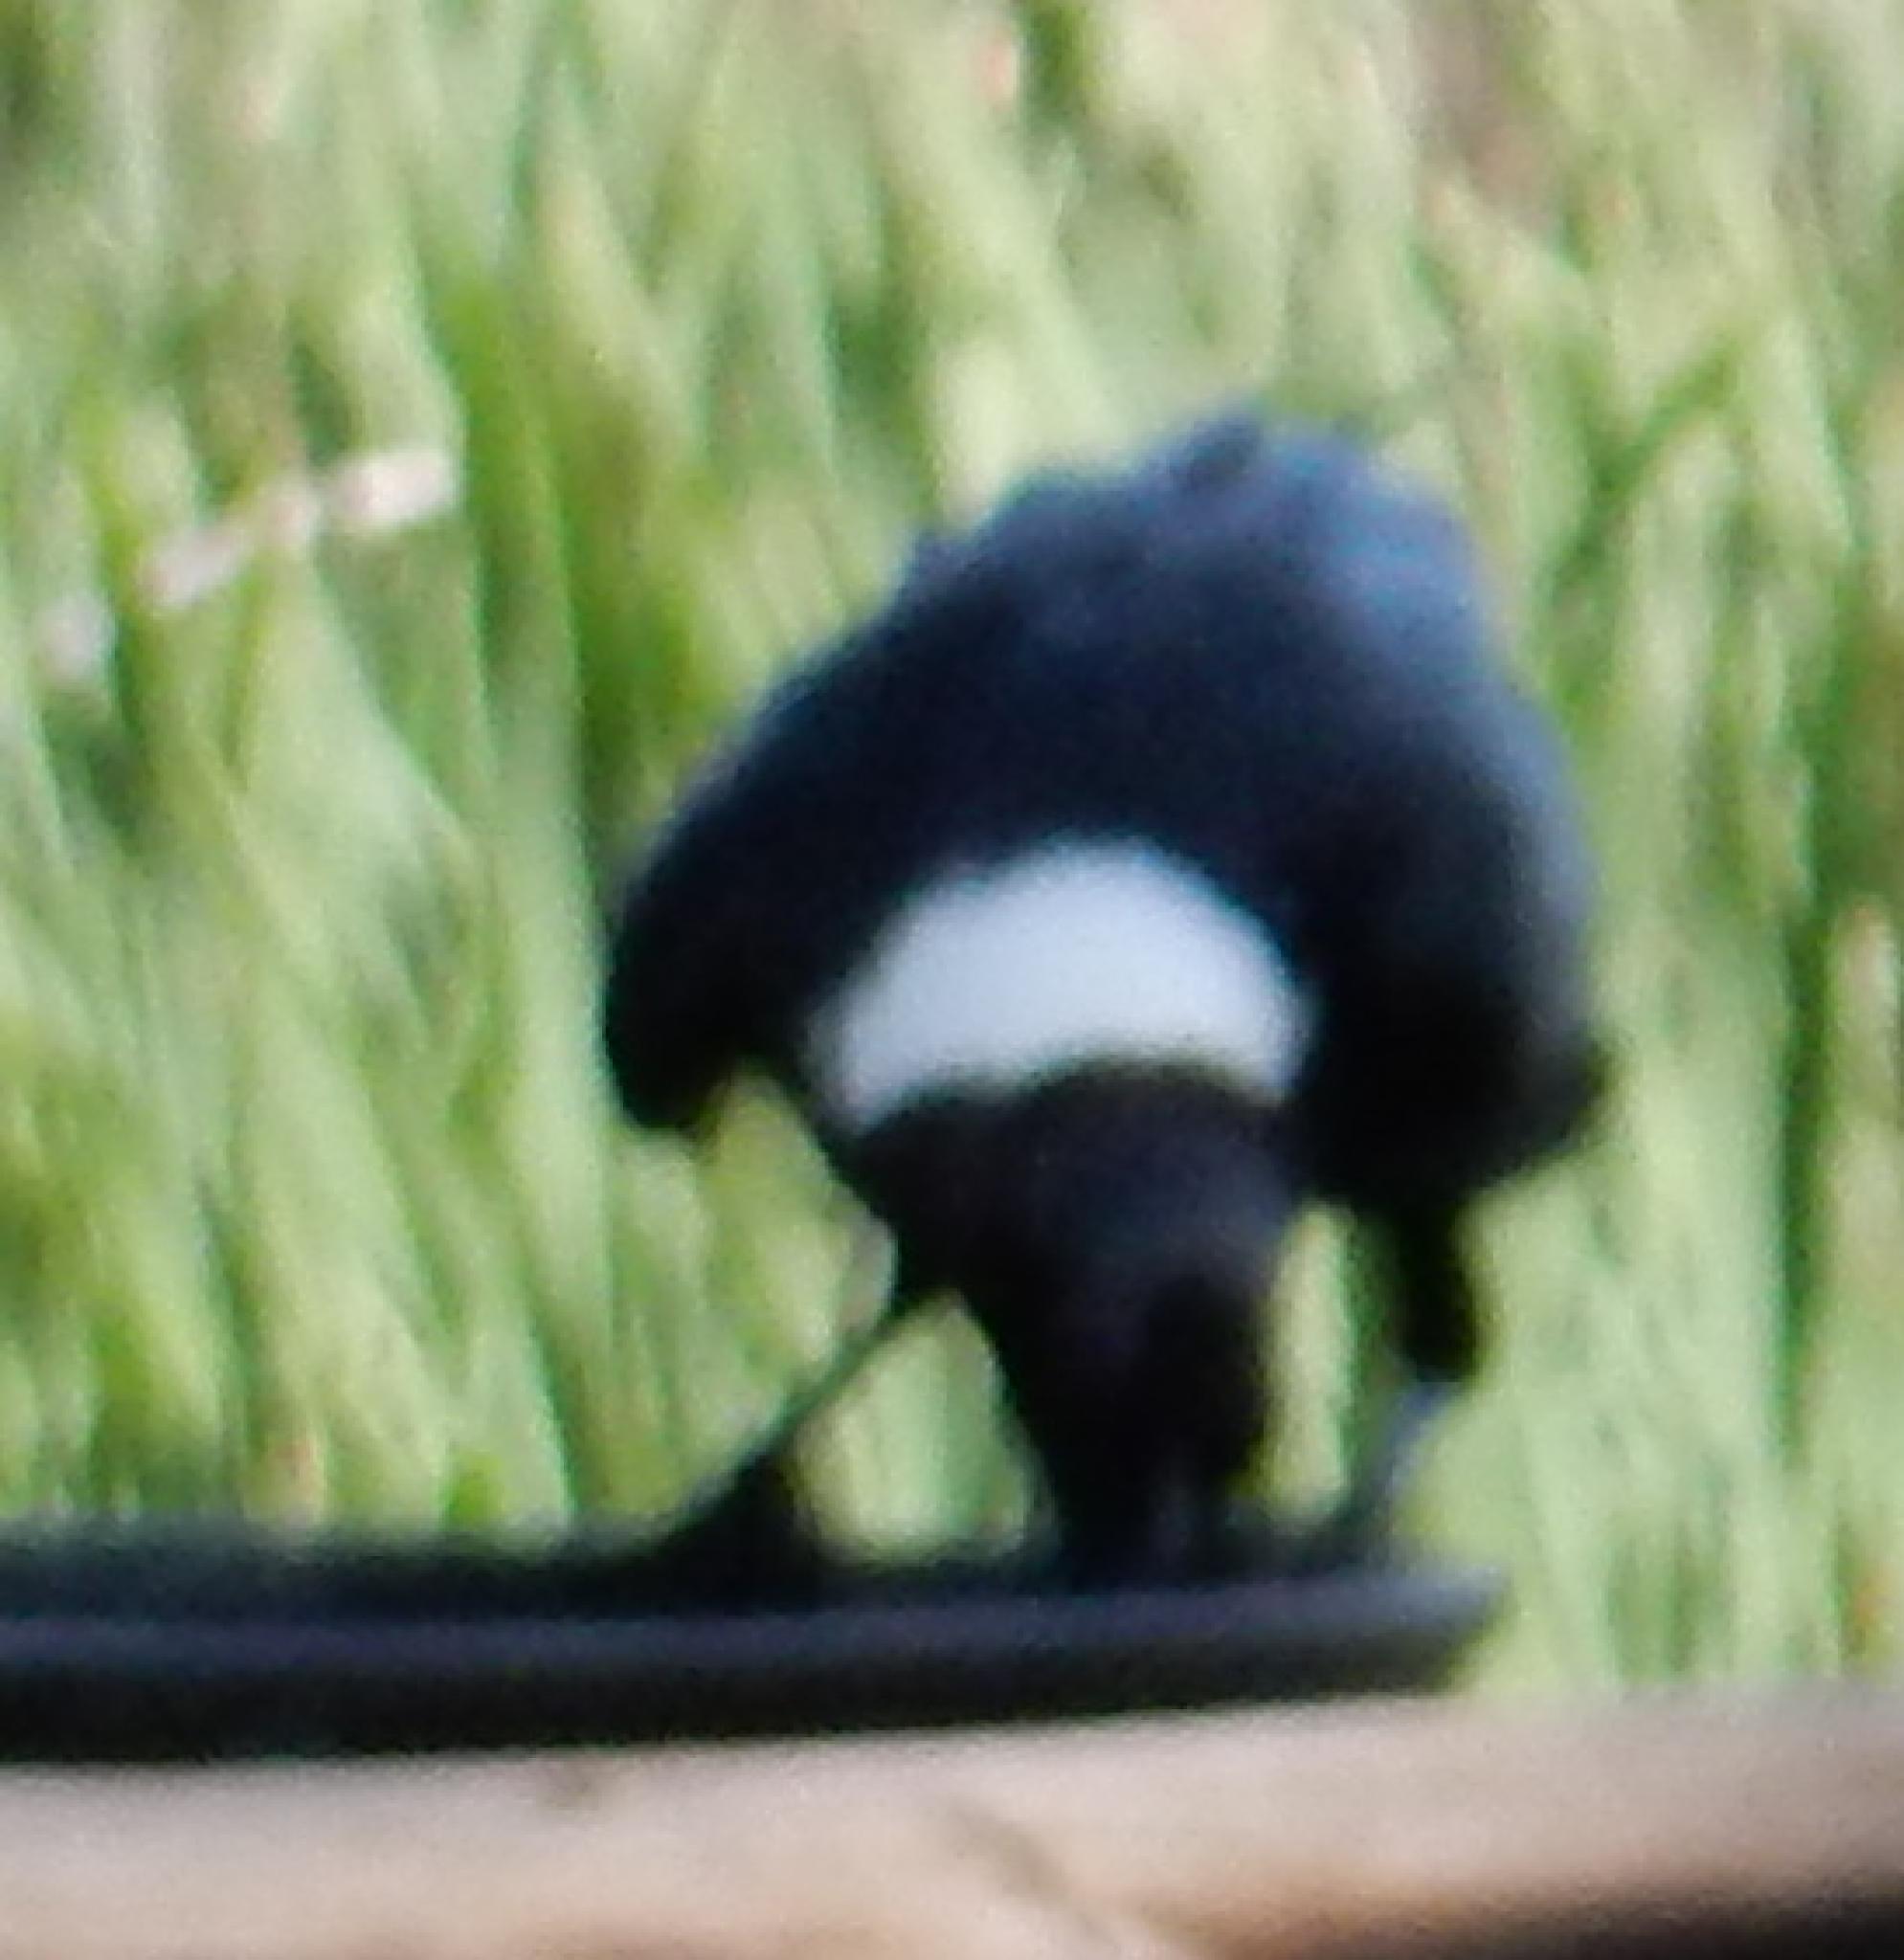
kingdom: Animalia
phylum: Chordata
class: Aves
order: Passeriformes
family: Corvidae
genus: Corvus
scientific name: Corvus albicollis
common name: White-necked raven
